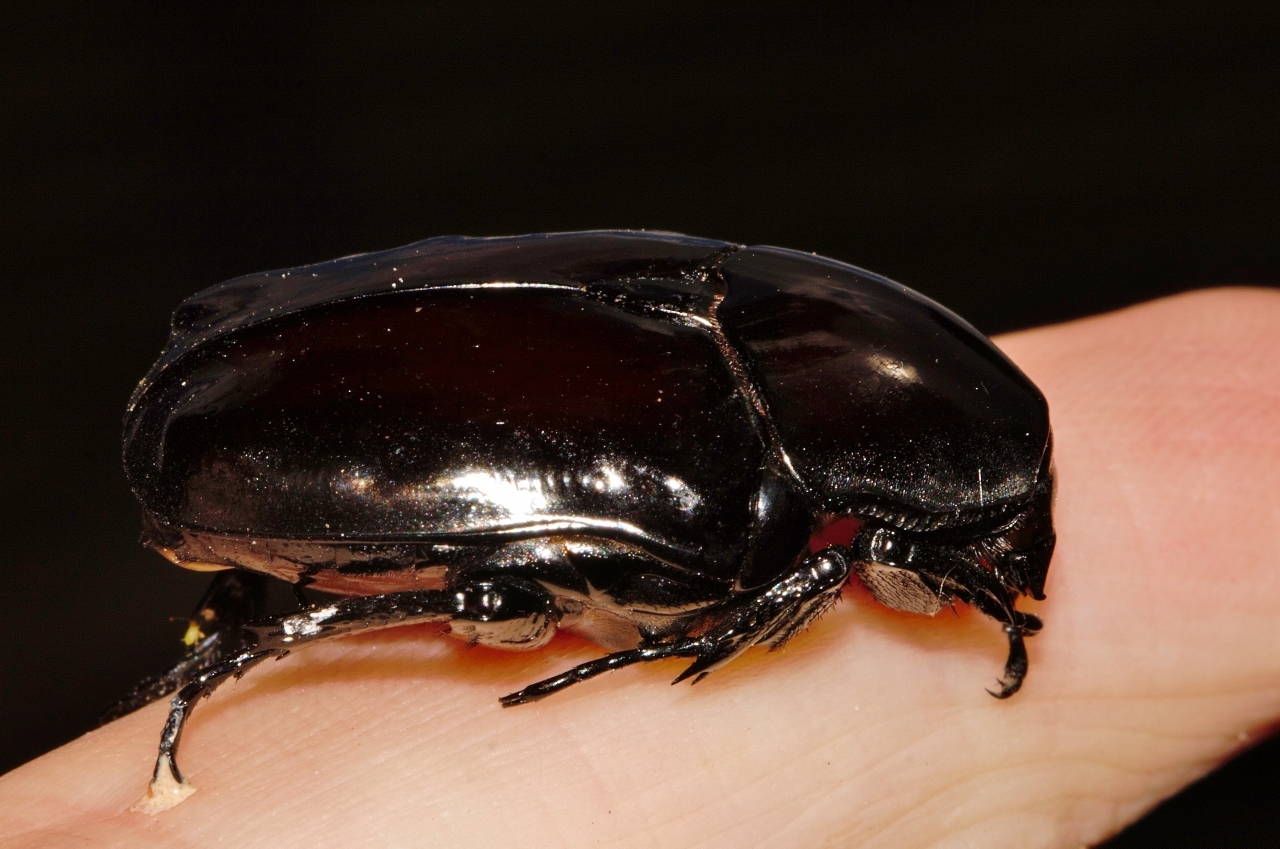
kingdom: Animalia
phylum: Arthropoda
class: Insecta
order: Coleoptera
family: Scarabaeidae
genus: Diplognatha
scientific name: Diplognatha gagates
